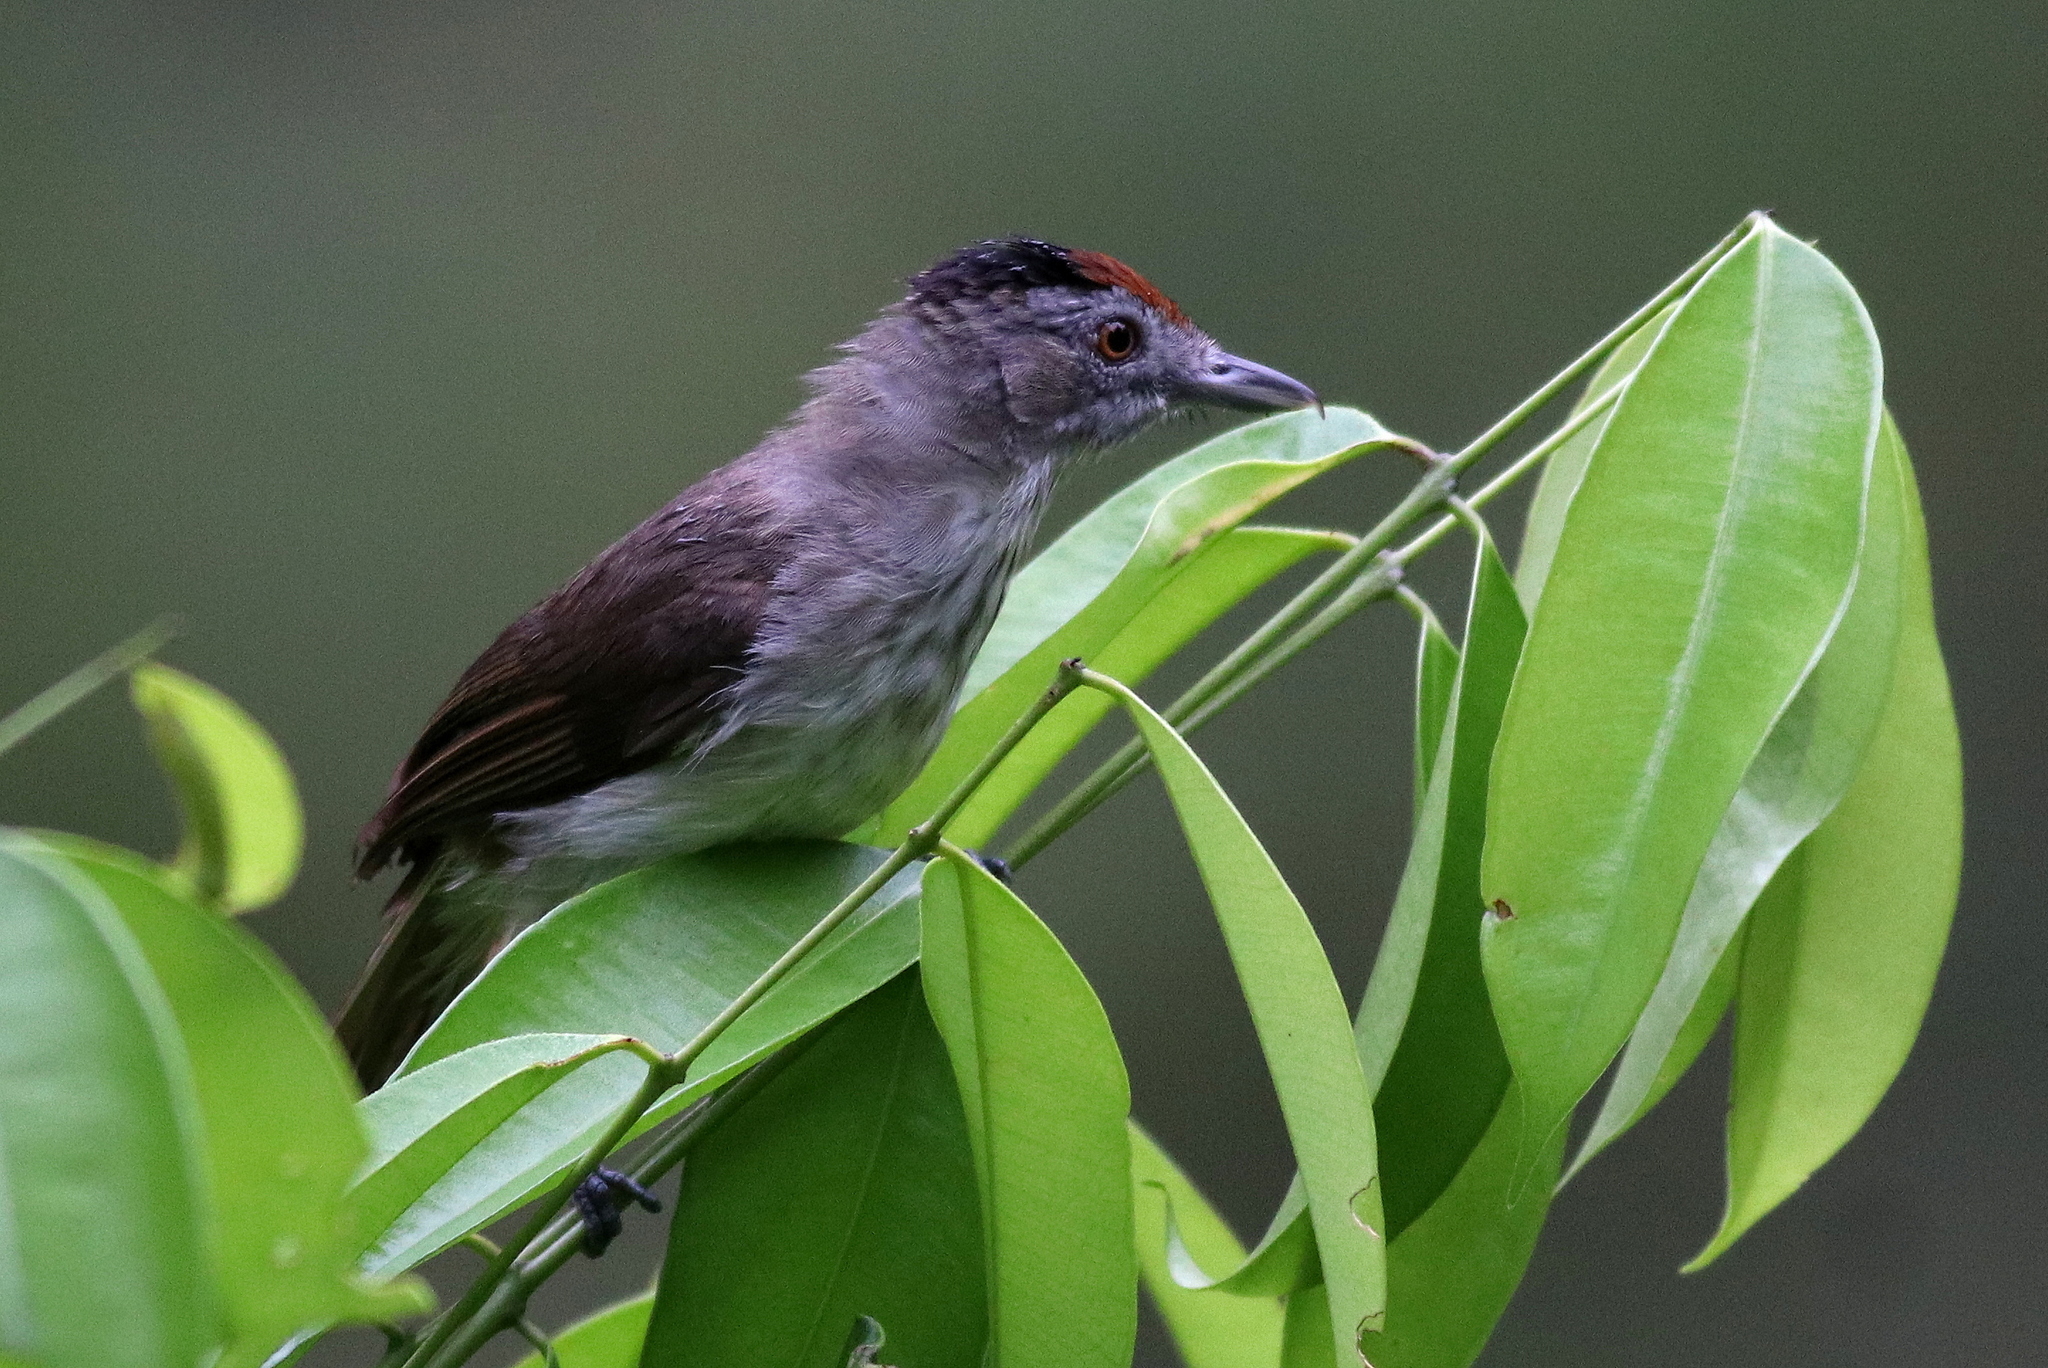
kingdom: Animalia
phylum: Chordata
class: Aves
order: Passeriformes
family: Pellorneidae
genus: Malacopteron
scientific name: Malacopteron magnum
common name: Rufous-crowned babbler
